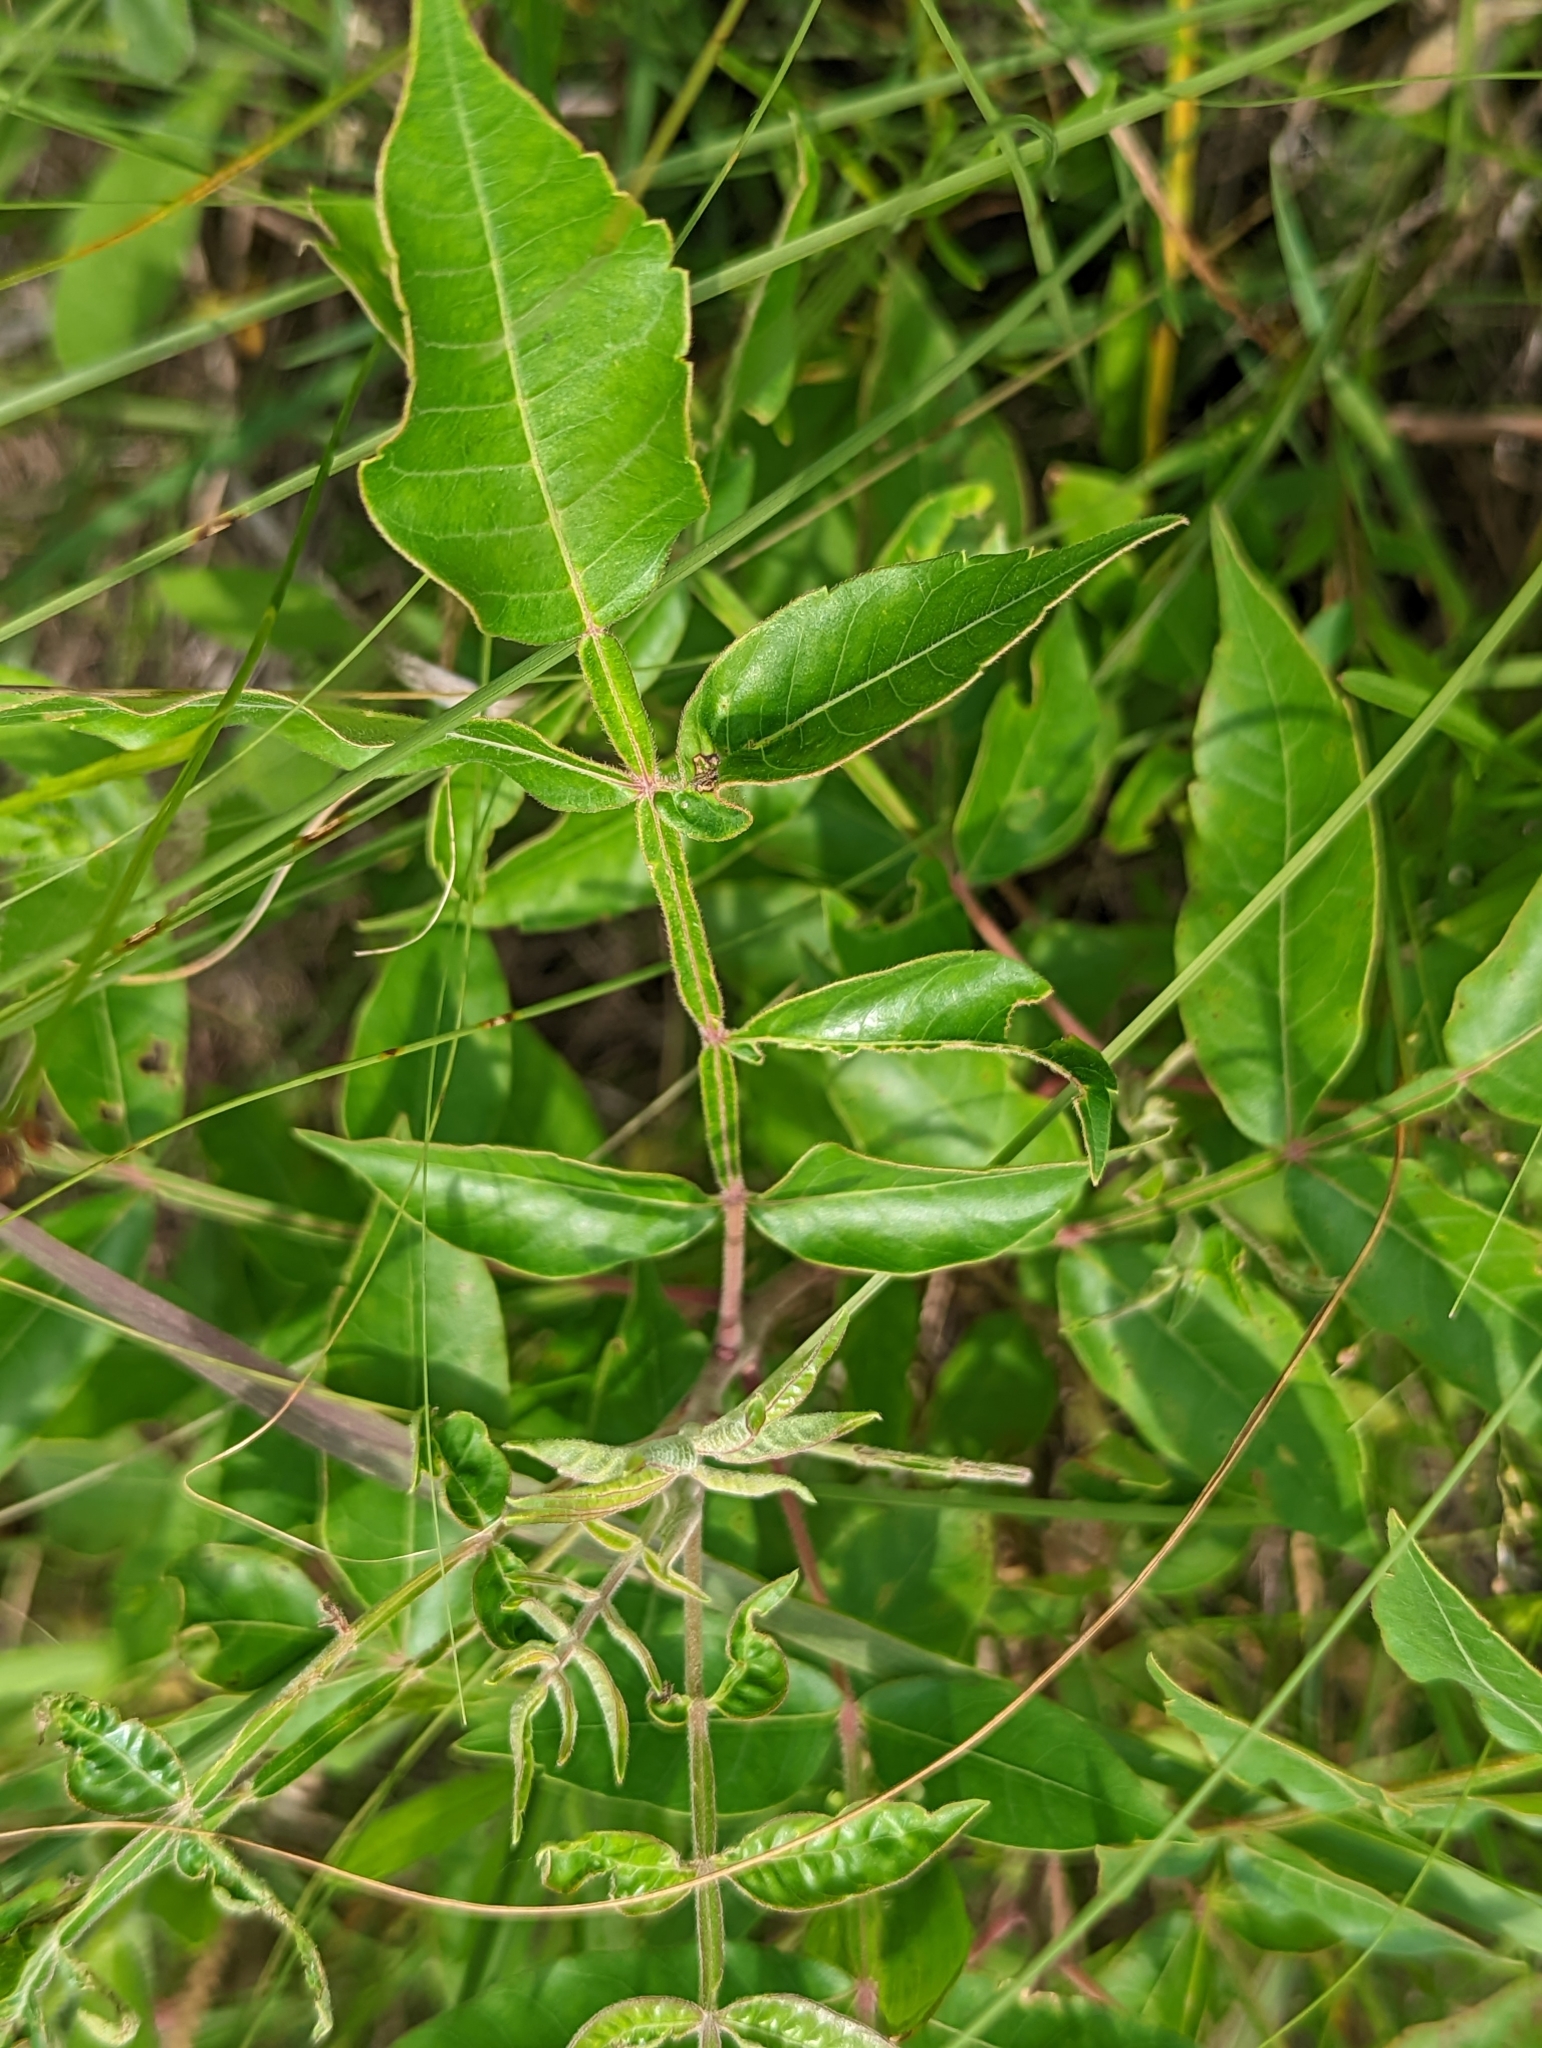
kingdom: Plantae
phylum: Tracheophyta
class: Magnoliopsida
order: Sapindales
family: Anacardiaceae
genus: Rhus
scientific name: Rhus copallina
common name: Shining sumac
